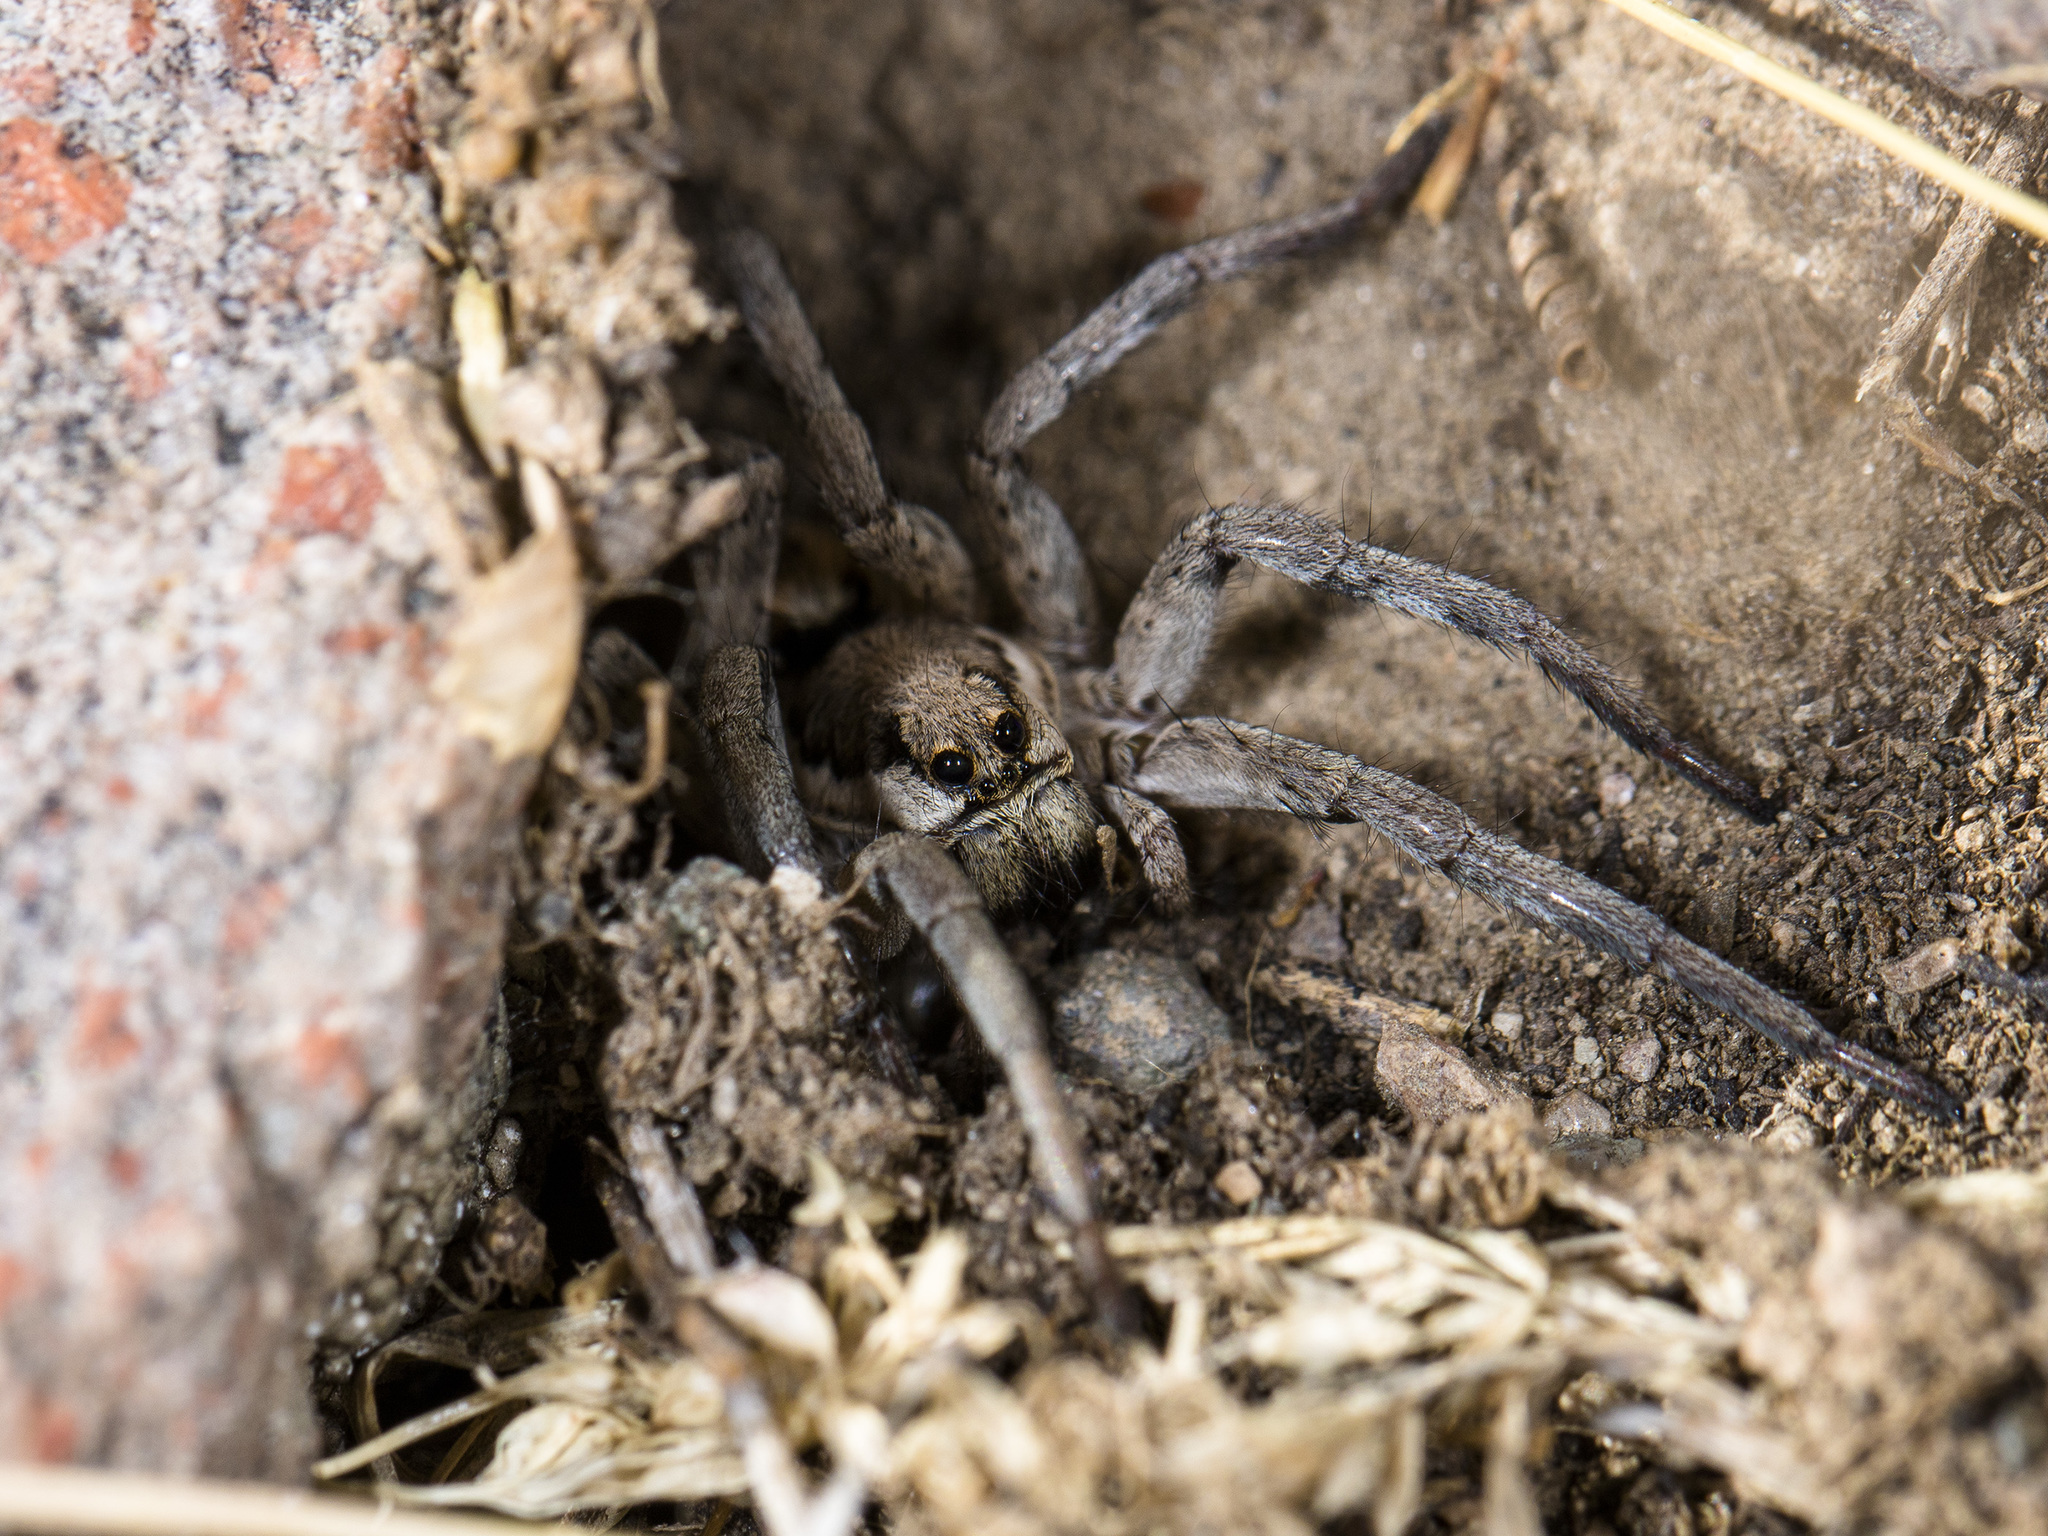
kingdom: Animalia
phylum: Arthropoda
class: Arachnida
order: Araneae
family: Lycosidae
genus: Lycosa
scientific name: Lycosa praegrandis
